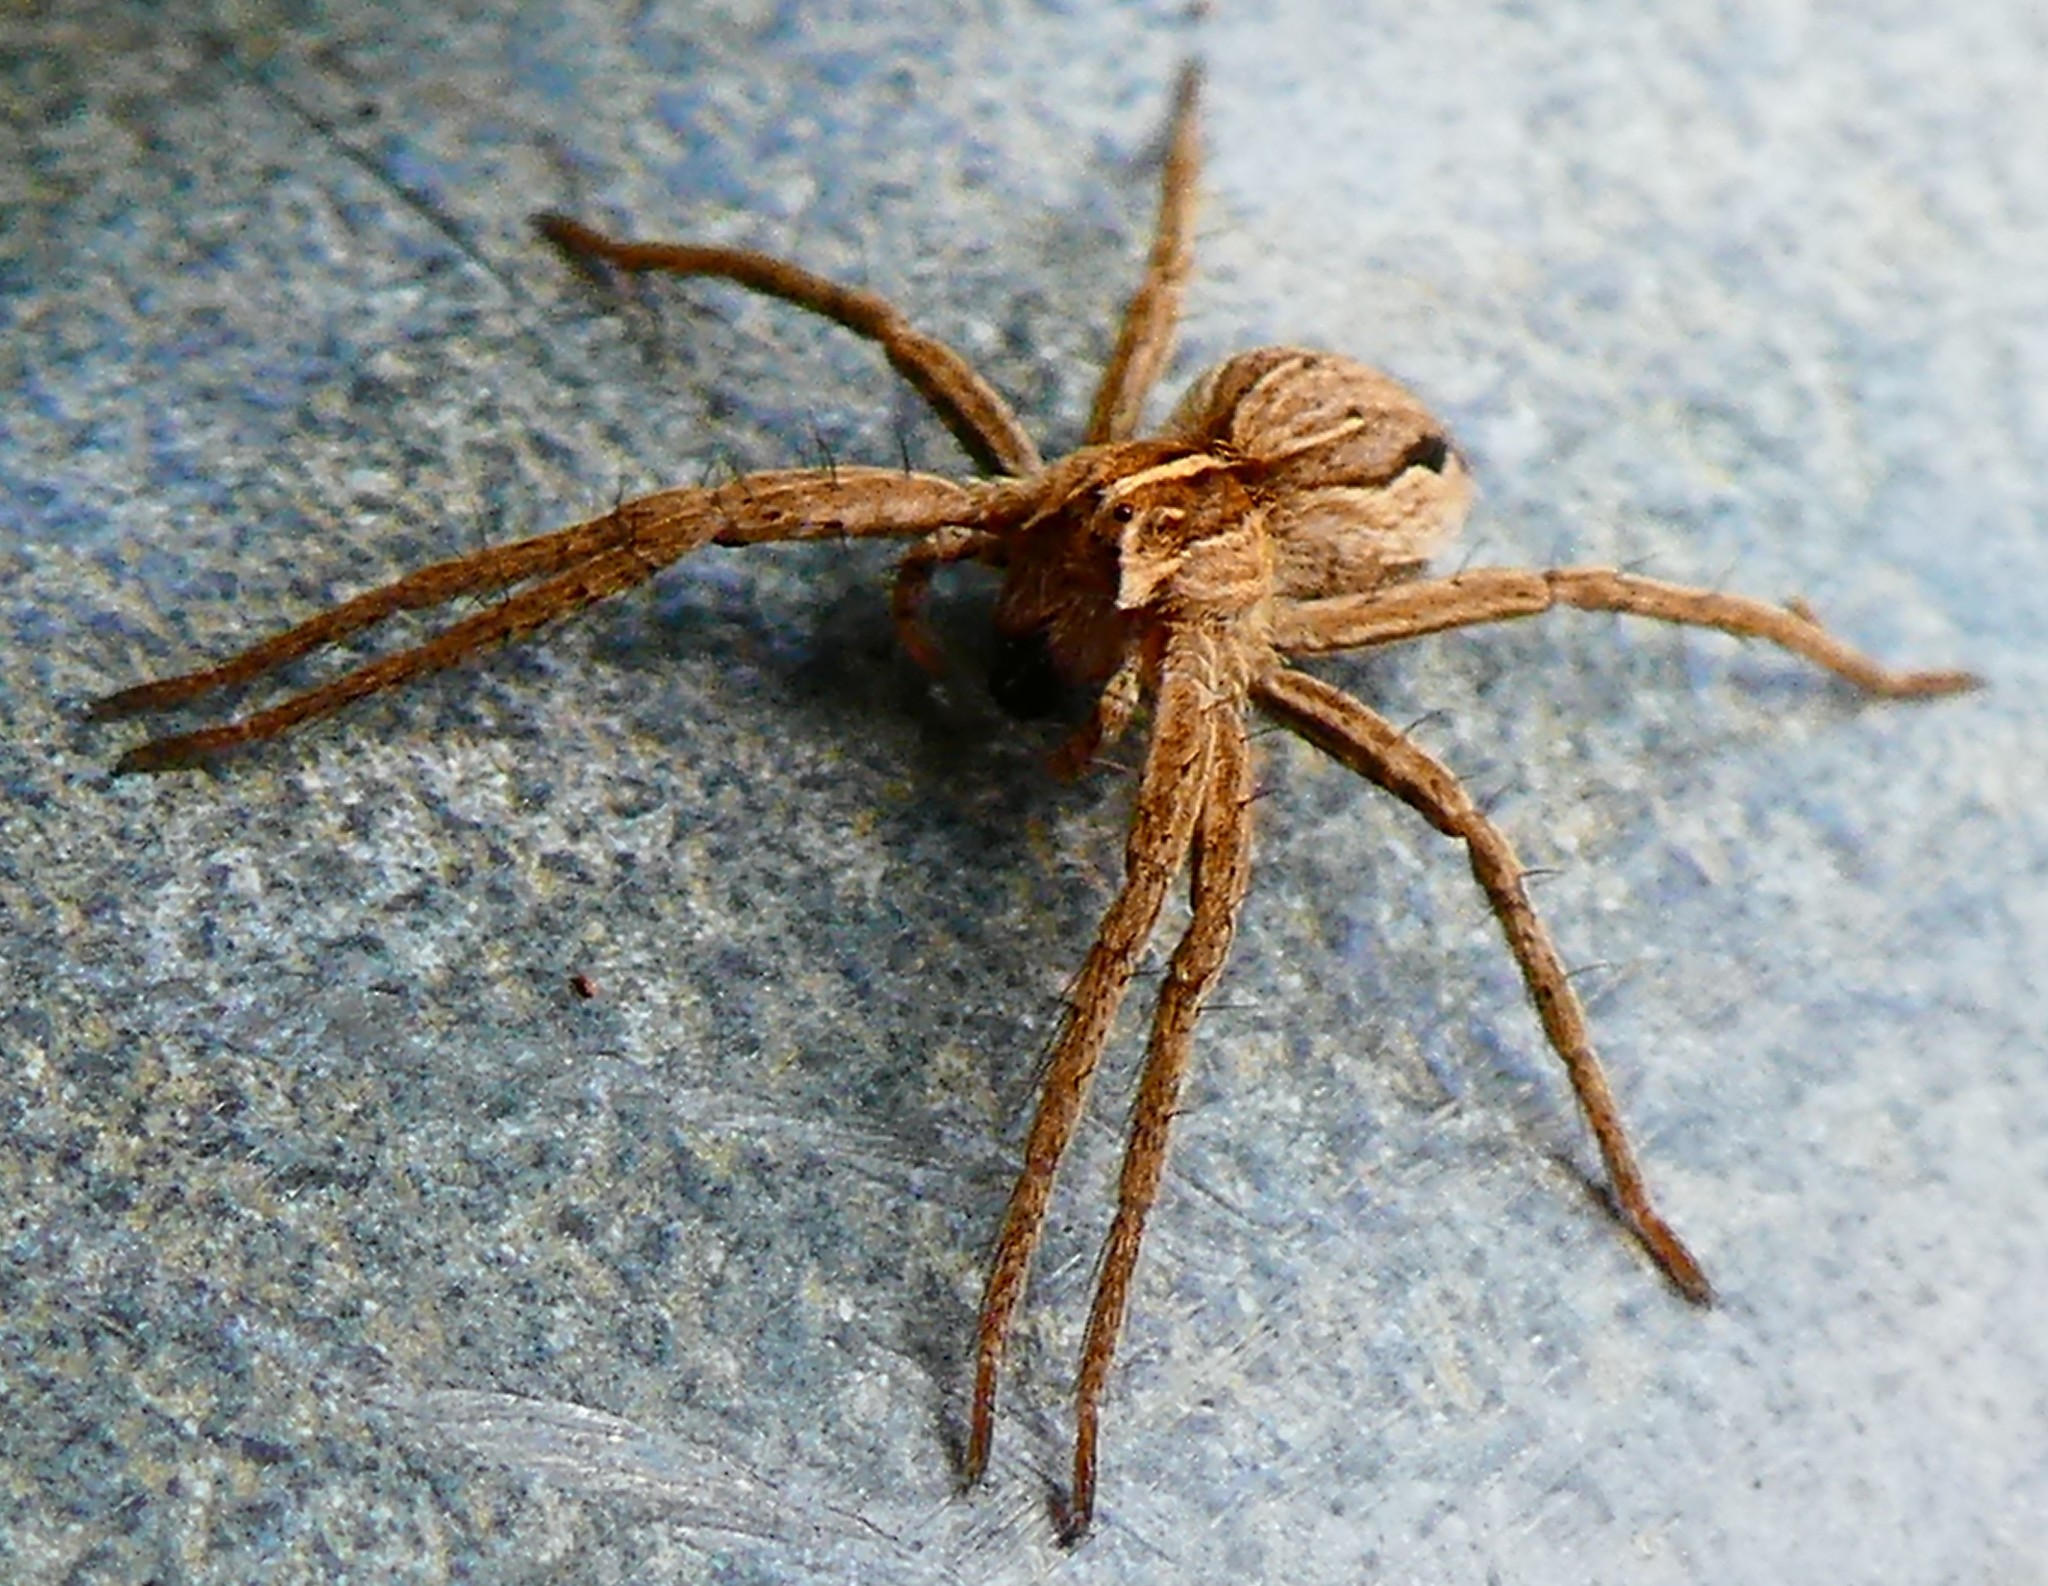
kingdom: Animalia
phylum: Arthropoda
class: Arachnida
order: Araneae
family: Pisauridae
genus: Pisaura
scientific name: Pisaura mirabilis
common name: Tent spider
